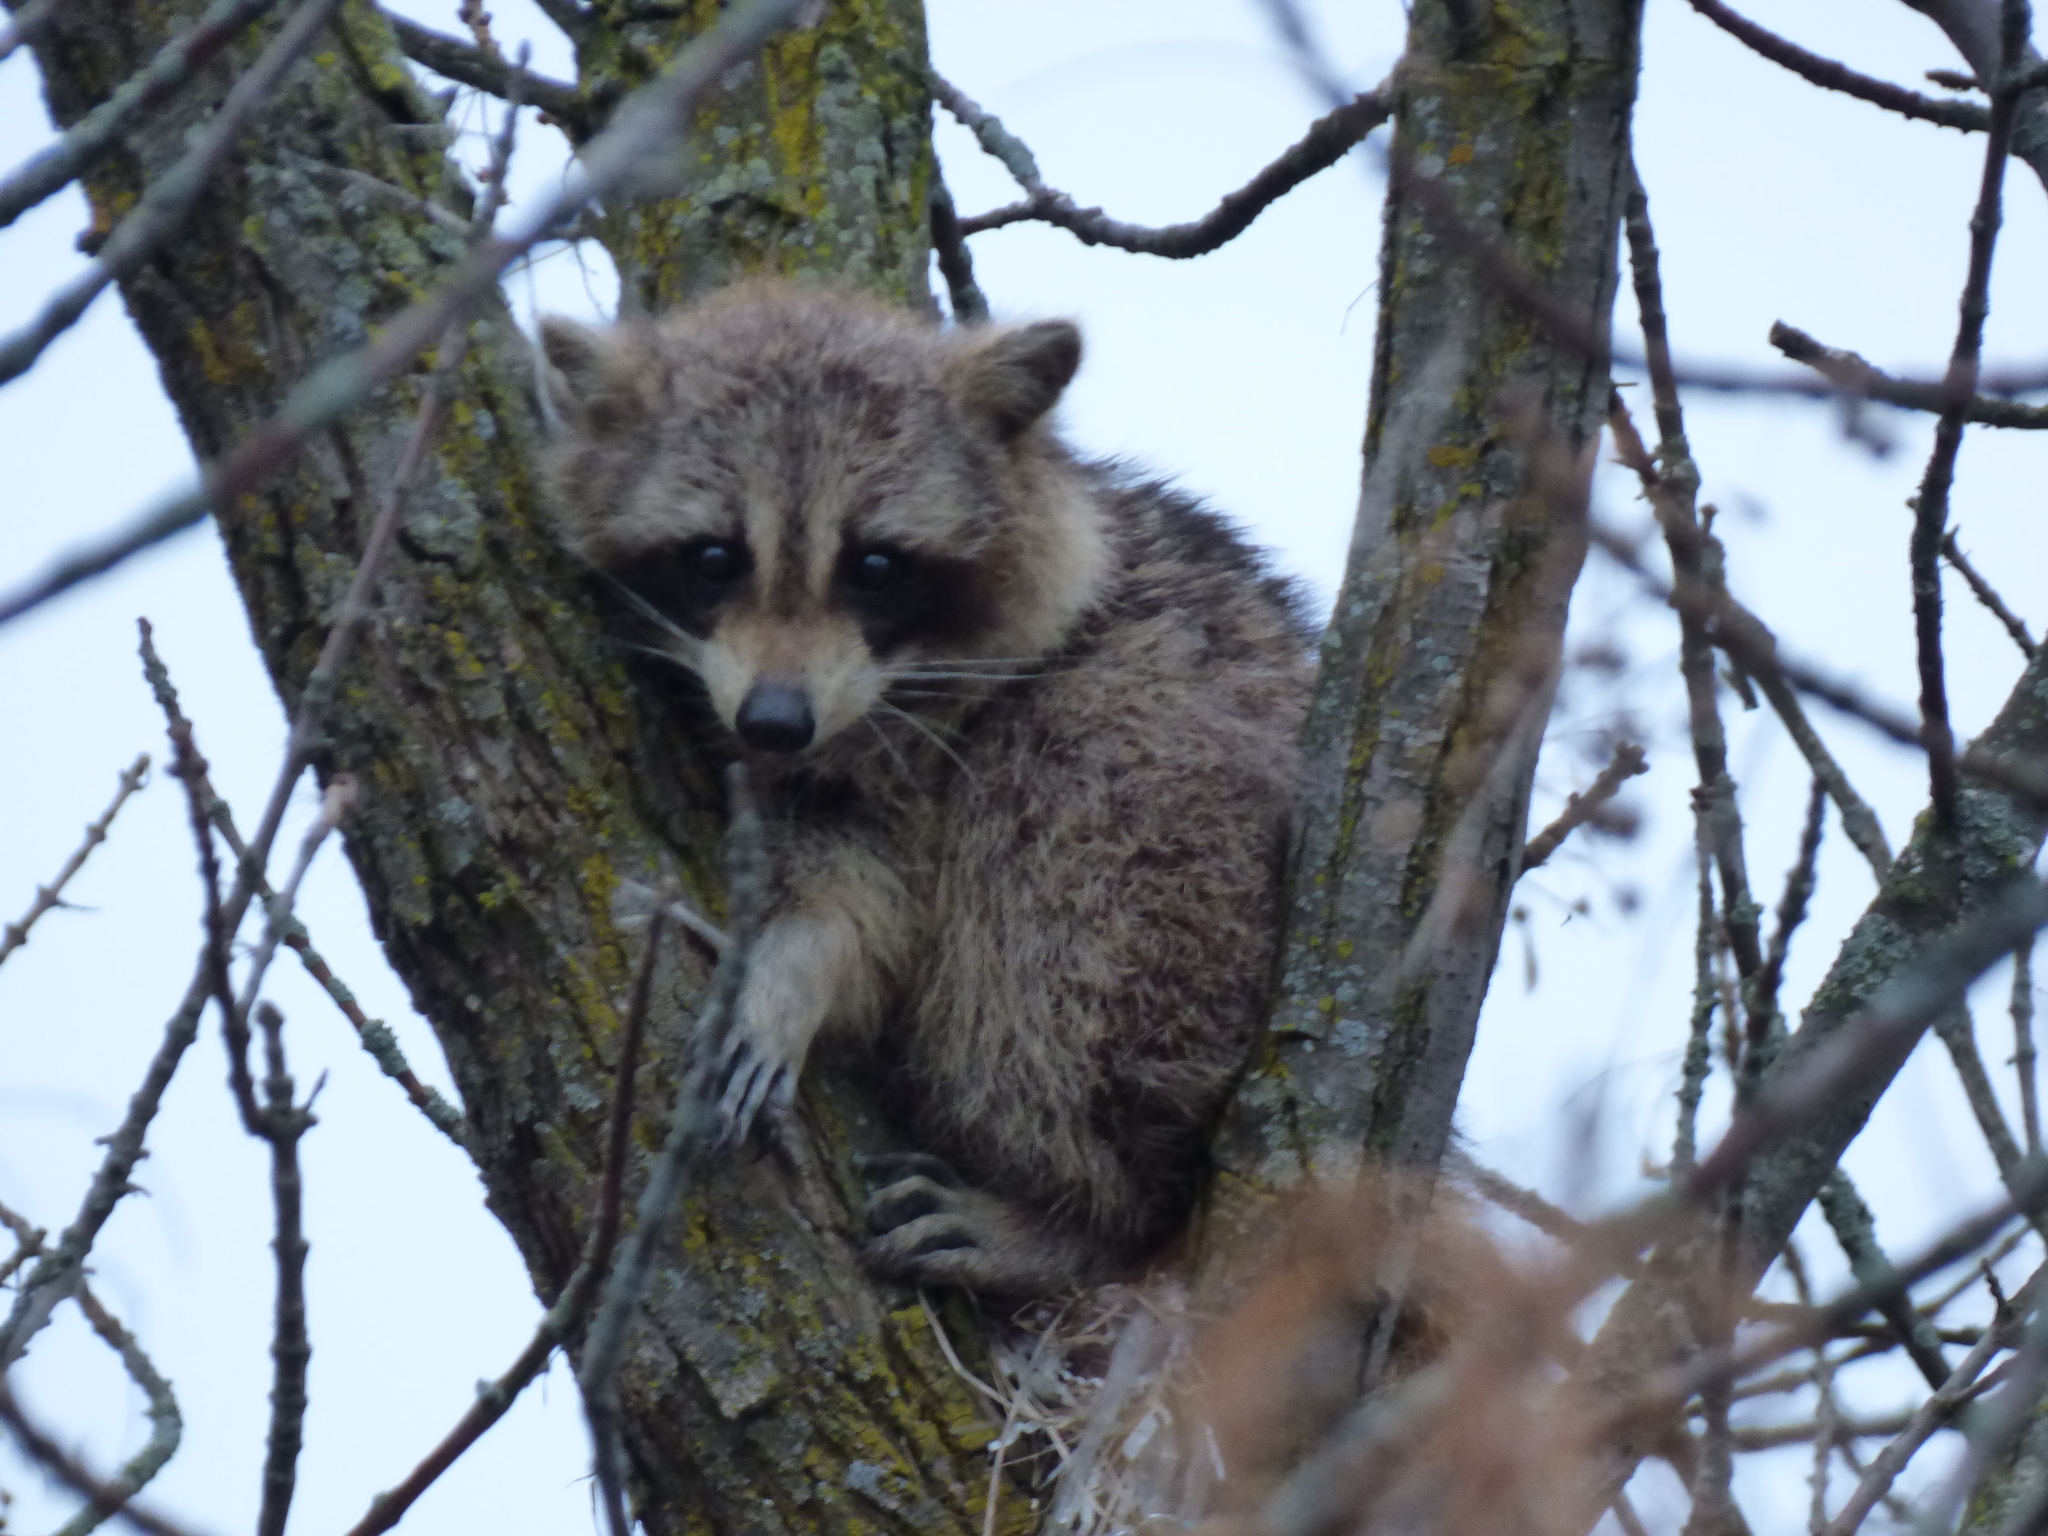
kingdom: Animalia
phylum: Chordata
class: Mammalia
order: Carnivora
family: Procyonidae
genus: Procyon
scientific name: Procyon lotor
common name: Raccoon
